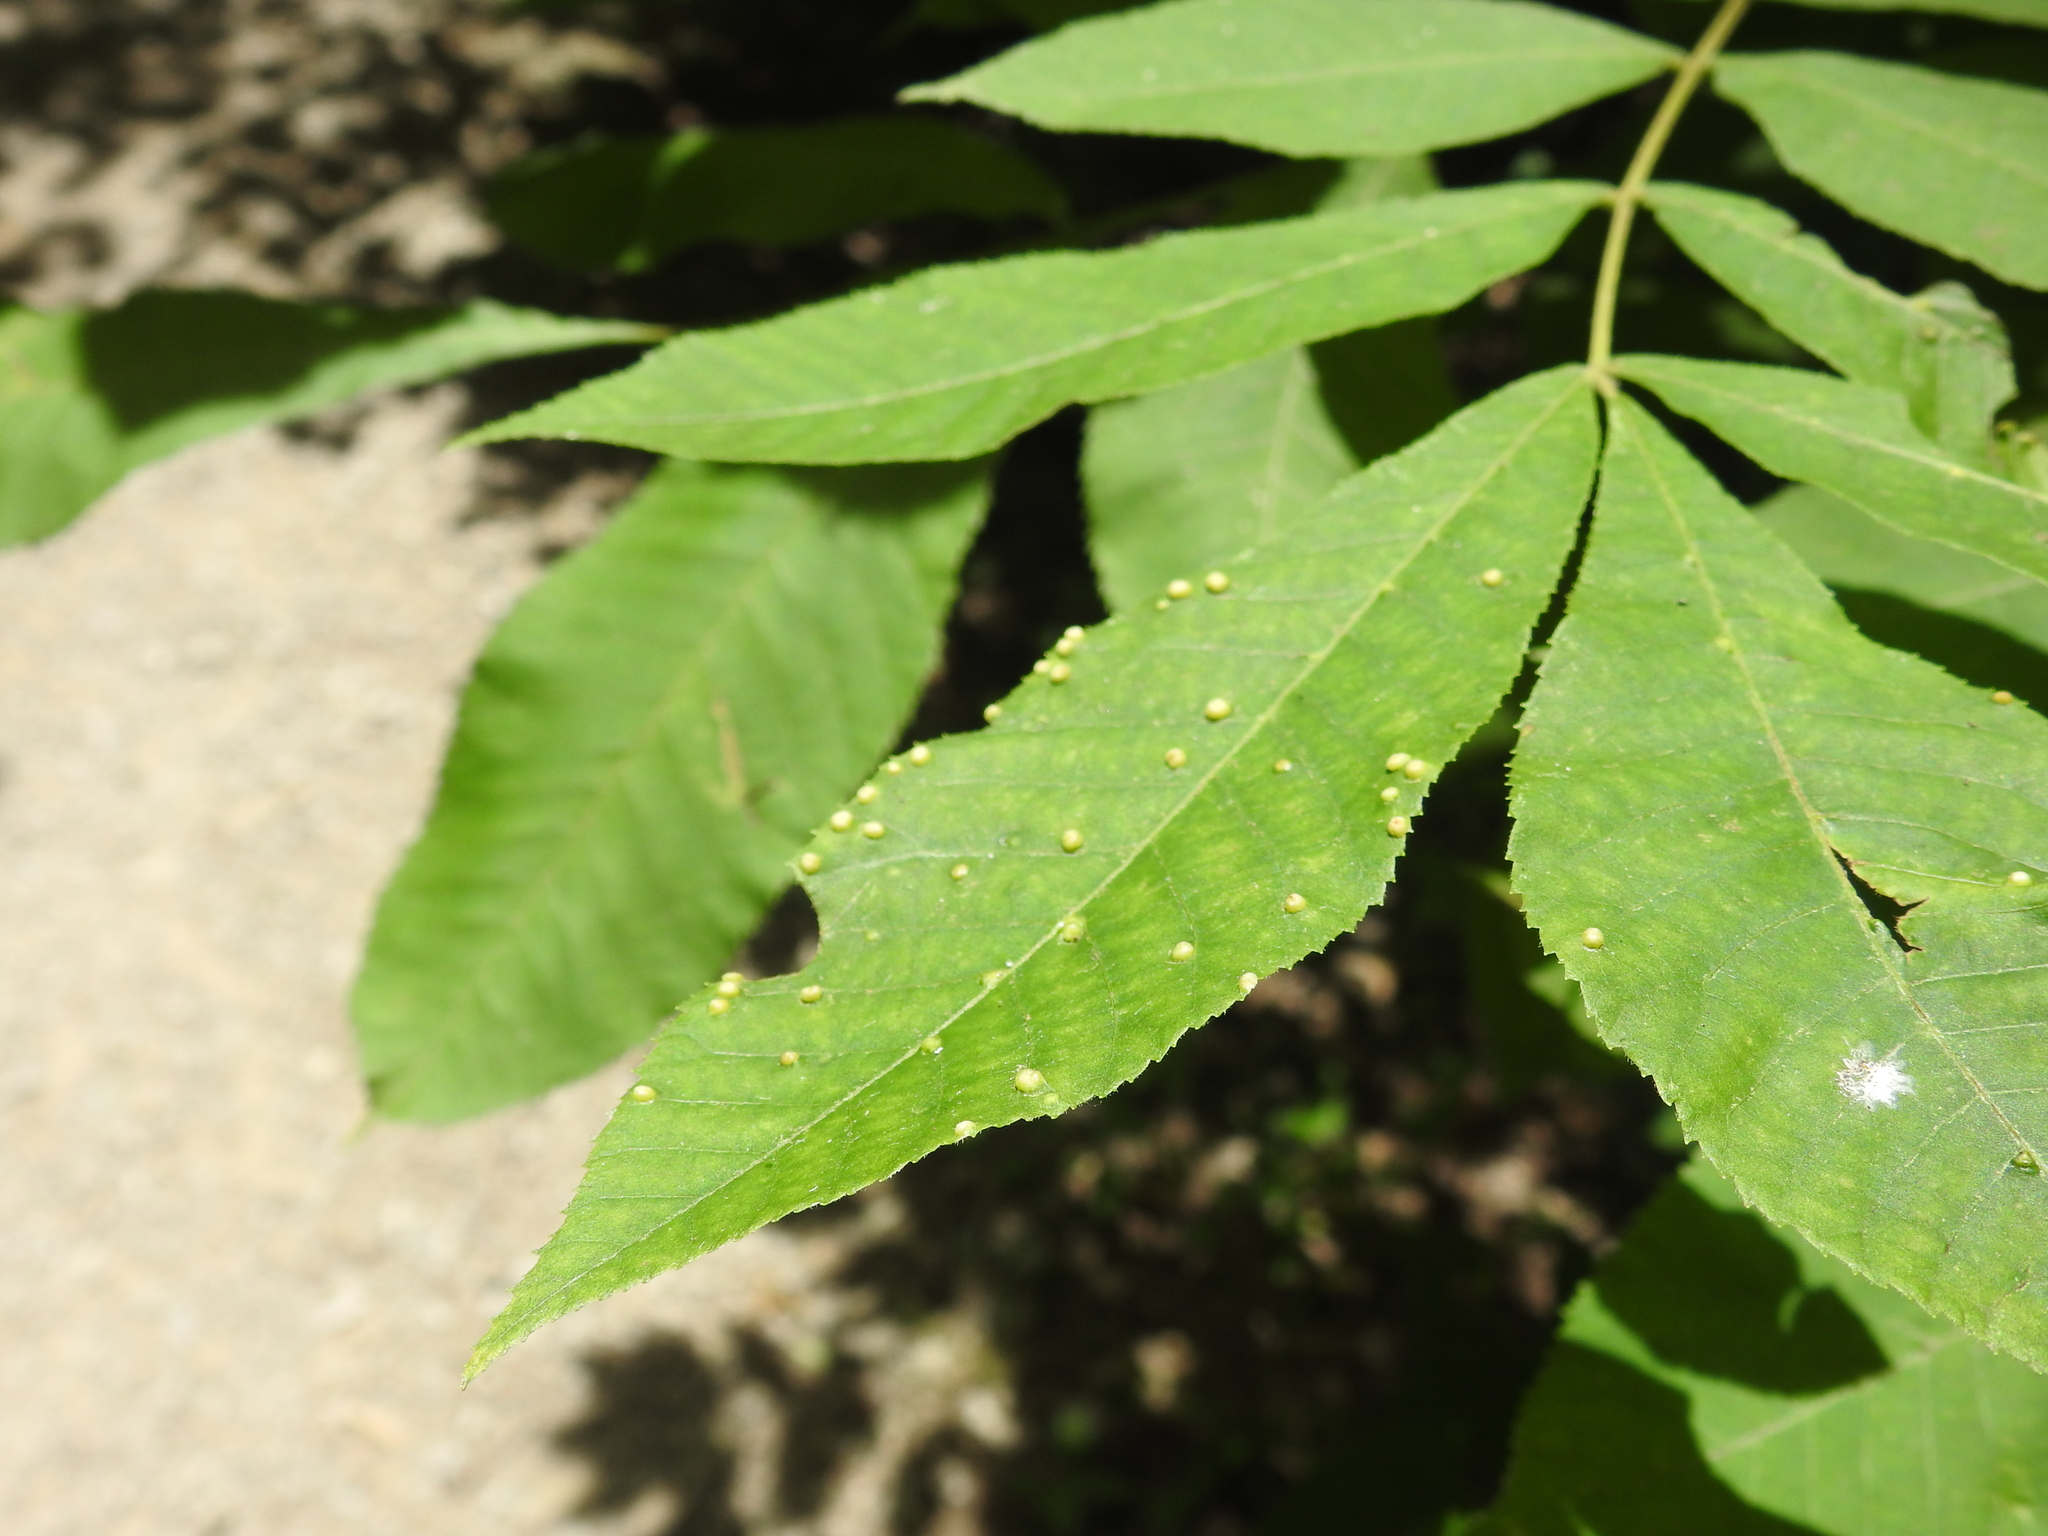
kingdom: Animalia
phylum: Arthropoda
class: Insecta
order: Hemiptera
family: Phylloxeridae
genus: Phylloxera
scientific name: Phylloxera caryae-semen
